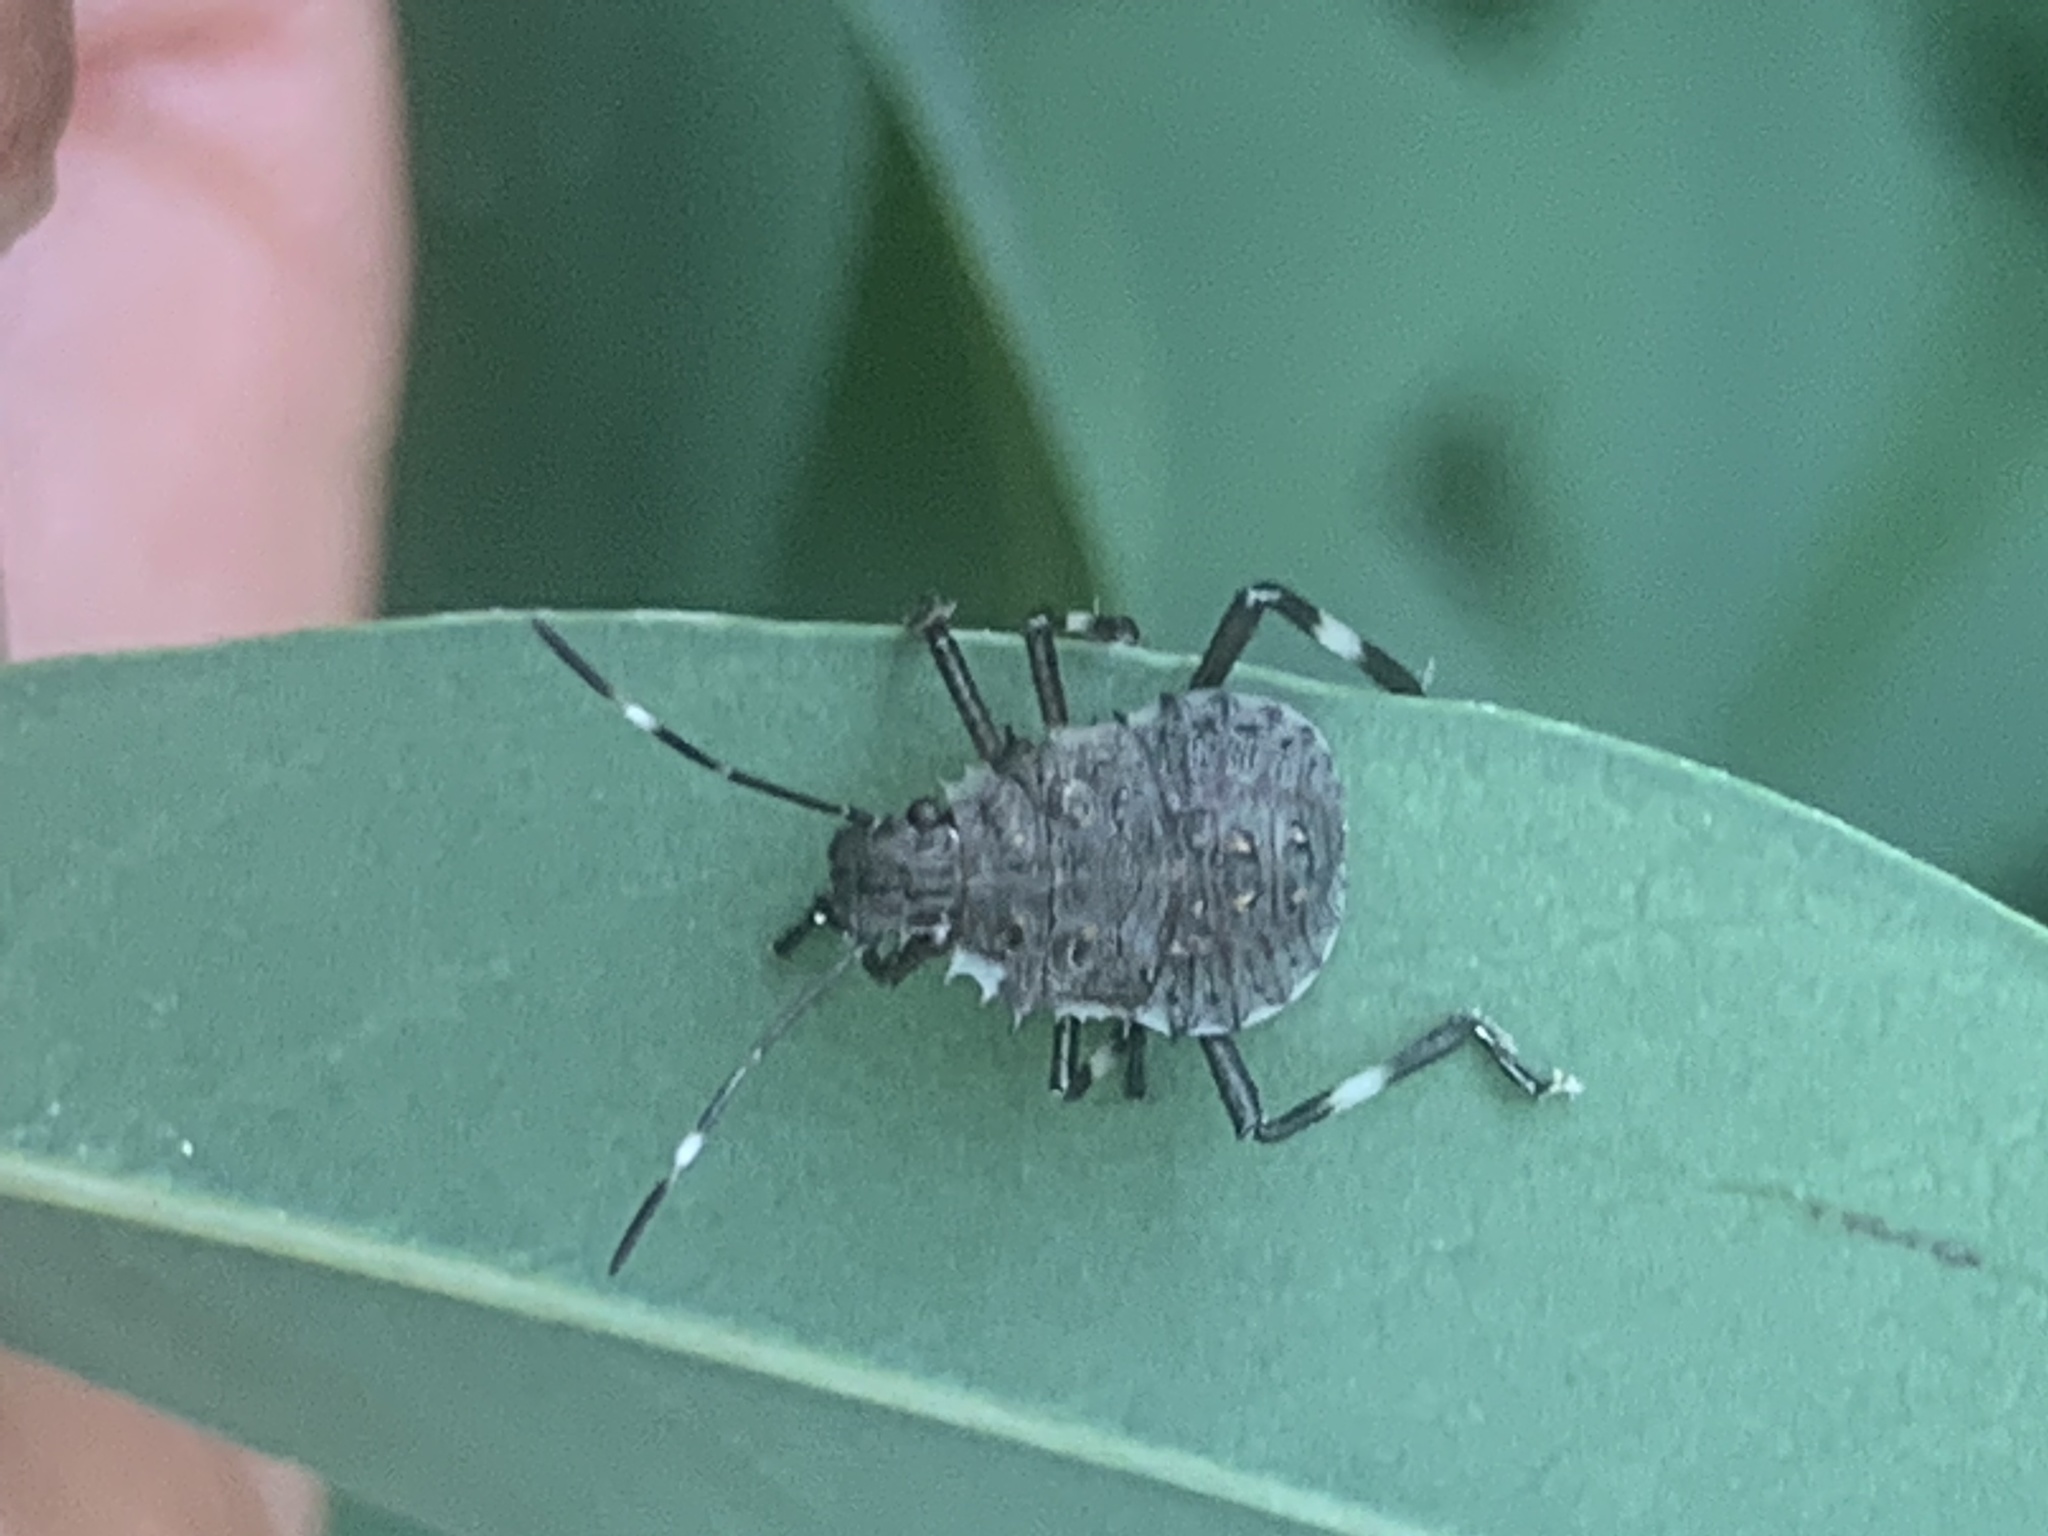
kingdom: Animalia
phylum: Arthropoda
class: Insecta
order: Hemiptera
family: Pentatomidae
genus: Halyomorpha
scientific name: Halyomorpha halys
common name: Brown marmorated stink bug
